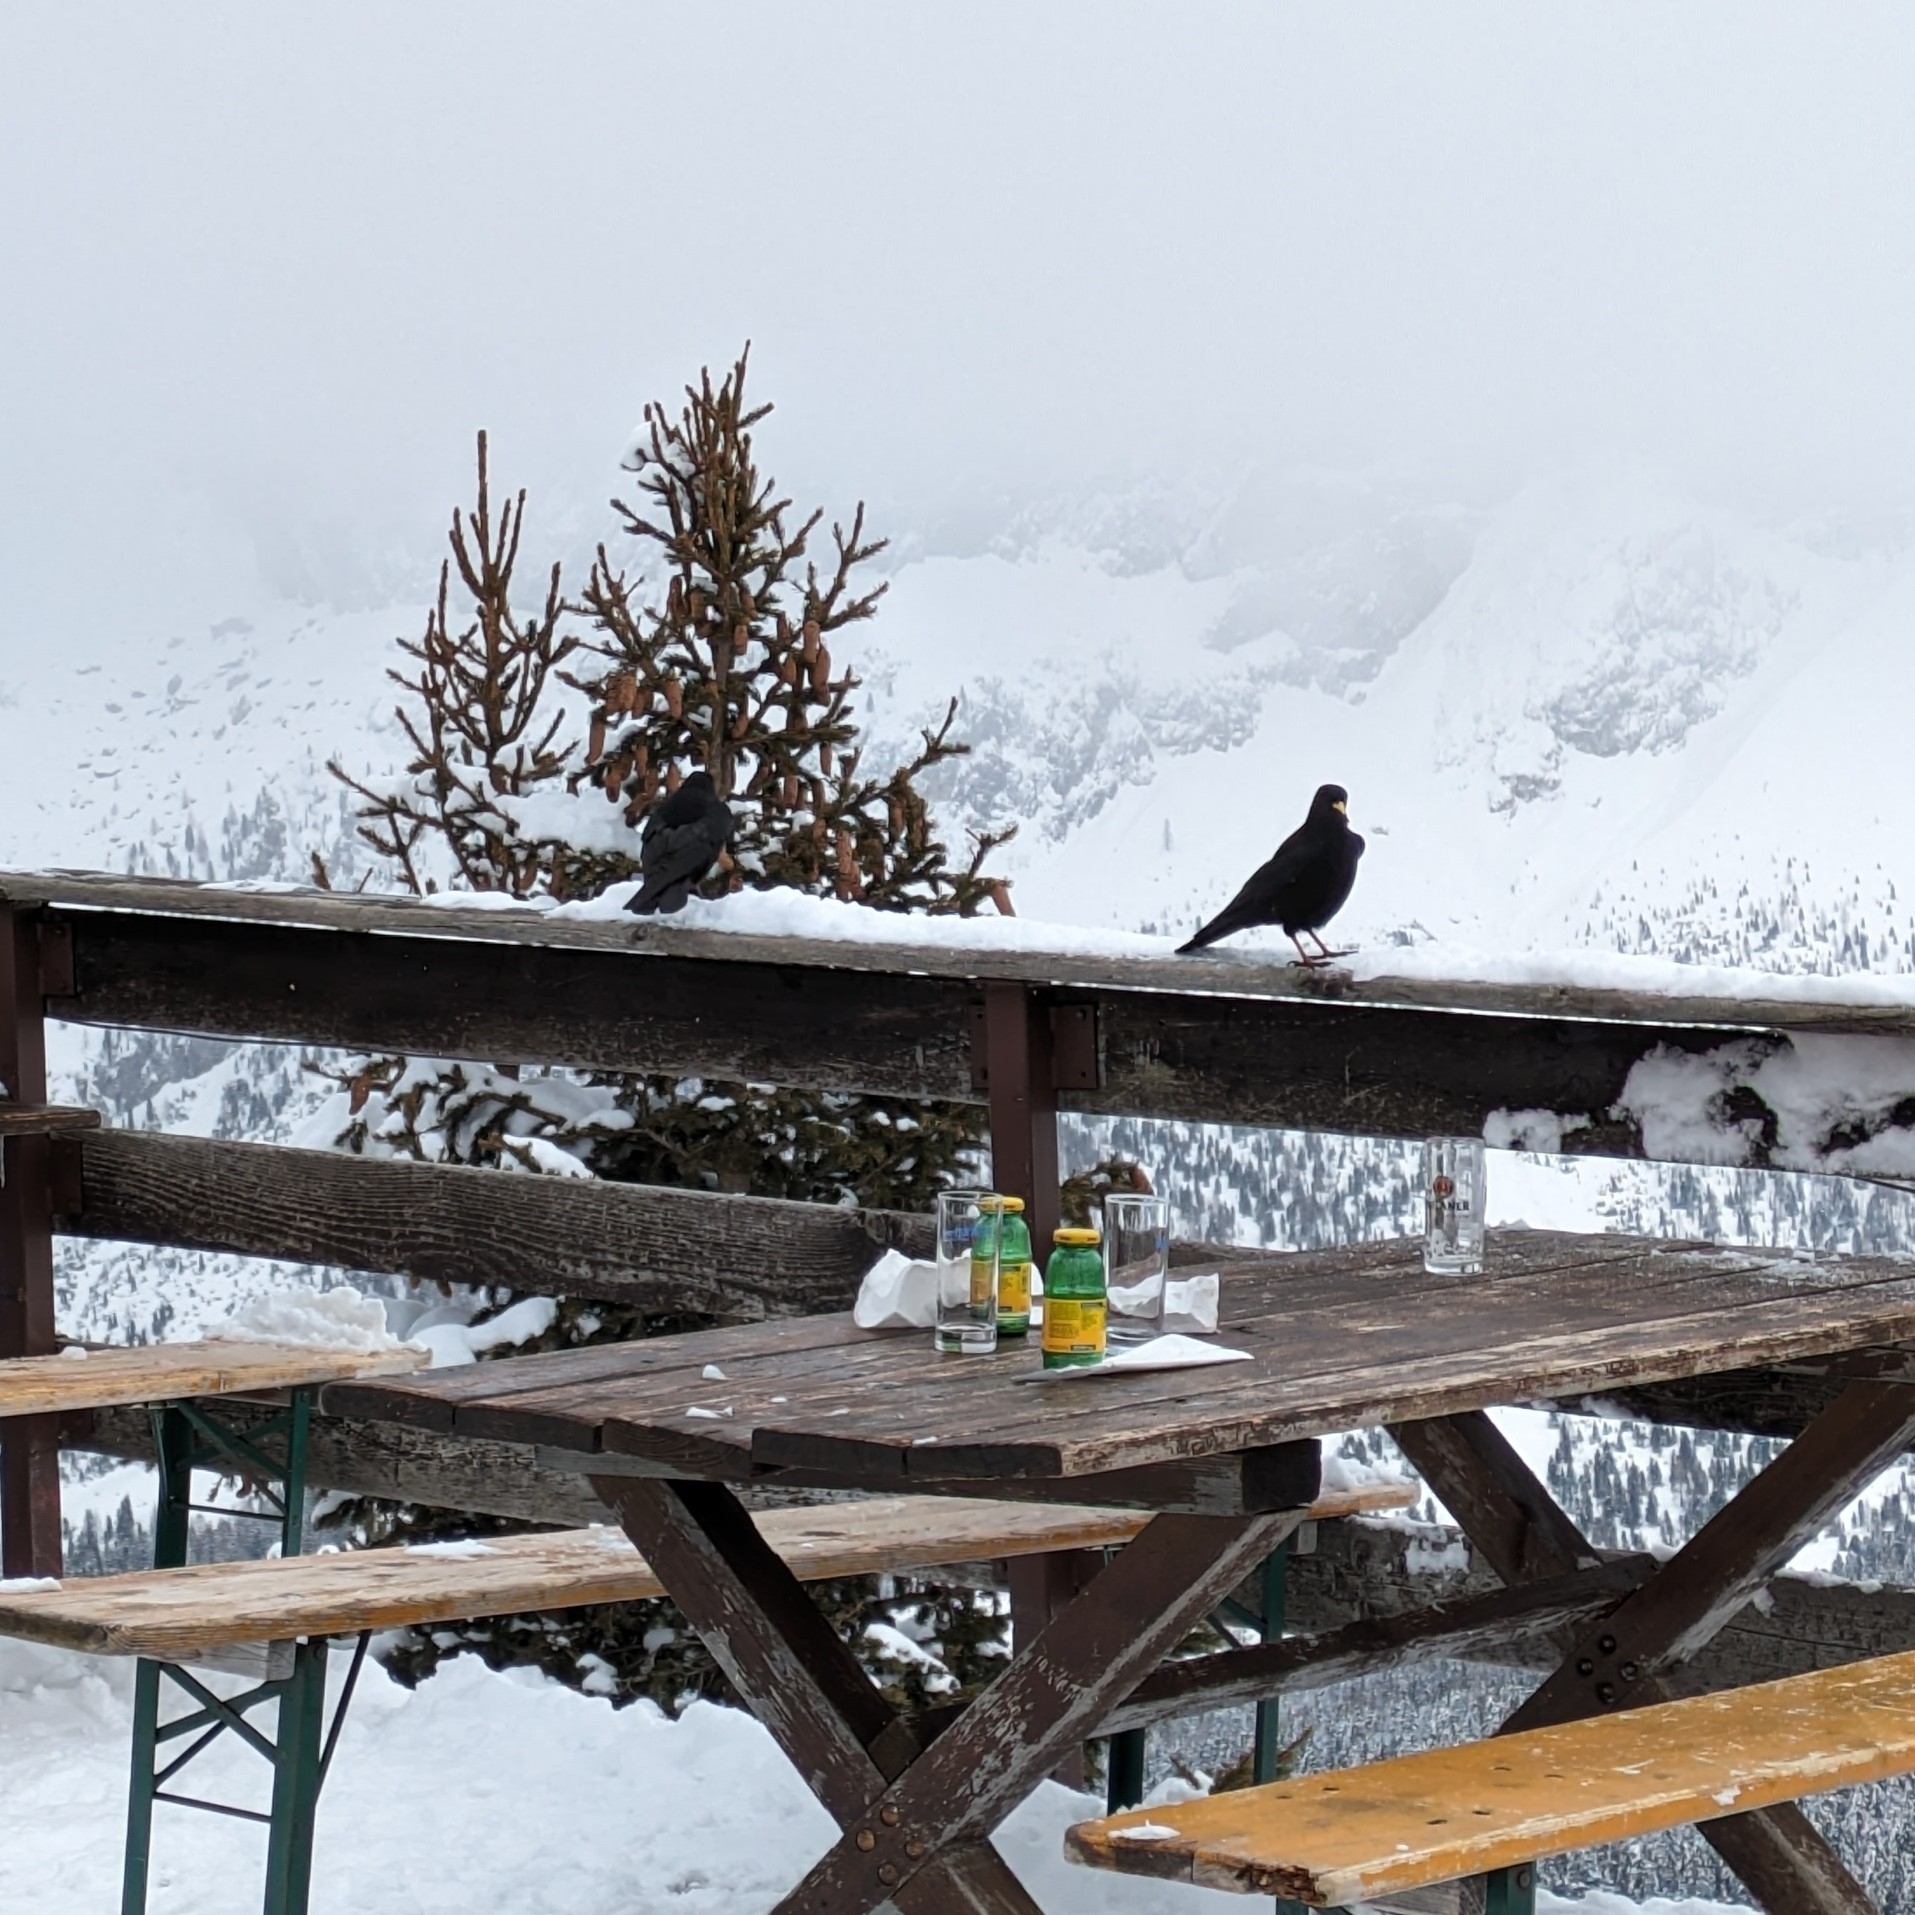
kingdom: Animalia
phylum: Chordata
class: Aves
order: Passeriformes
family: Corvidae
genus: Pyrrhocorax
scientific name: Pyrrhocorax graculus
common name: Alpine chough
